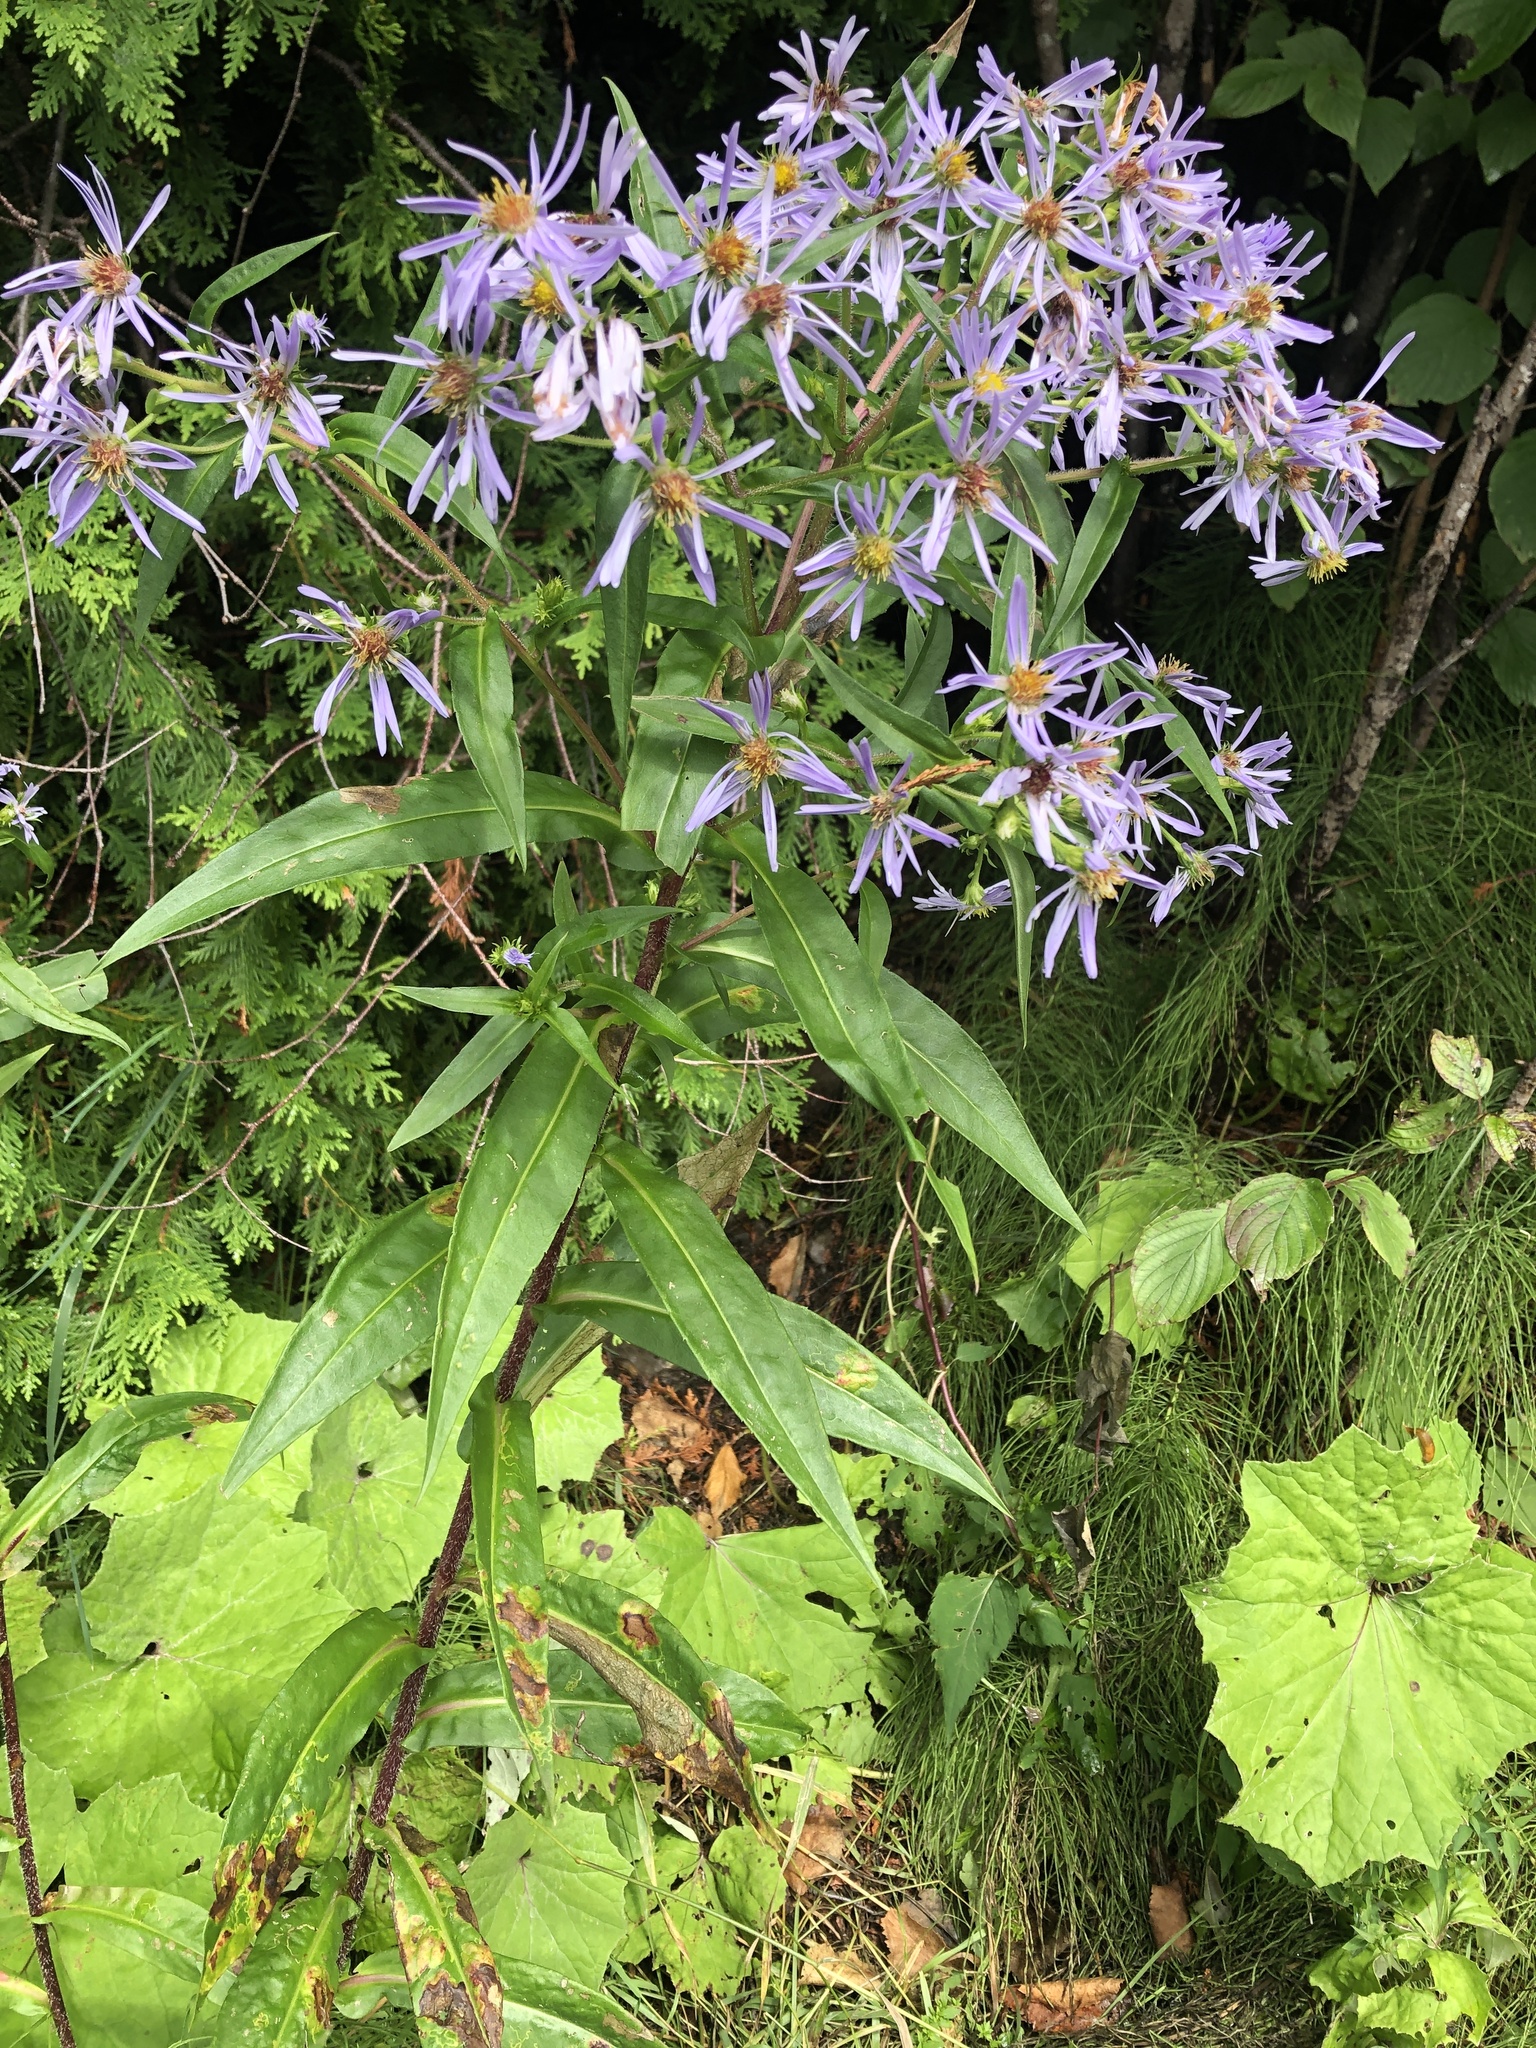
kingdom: Plantae
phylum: Tracheophyta
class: Magnoliopsida
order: Asterales
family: Asteraceae
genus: Symphyotrichum
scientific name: Symphyotrichum puniceum
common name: Bog aster
